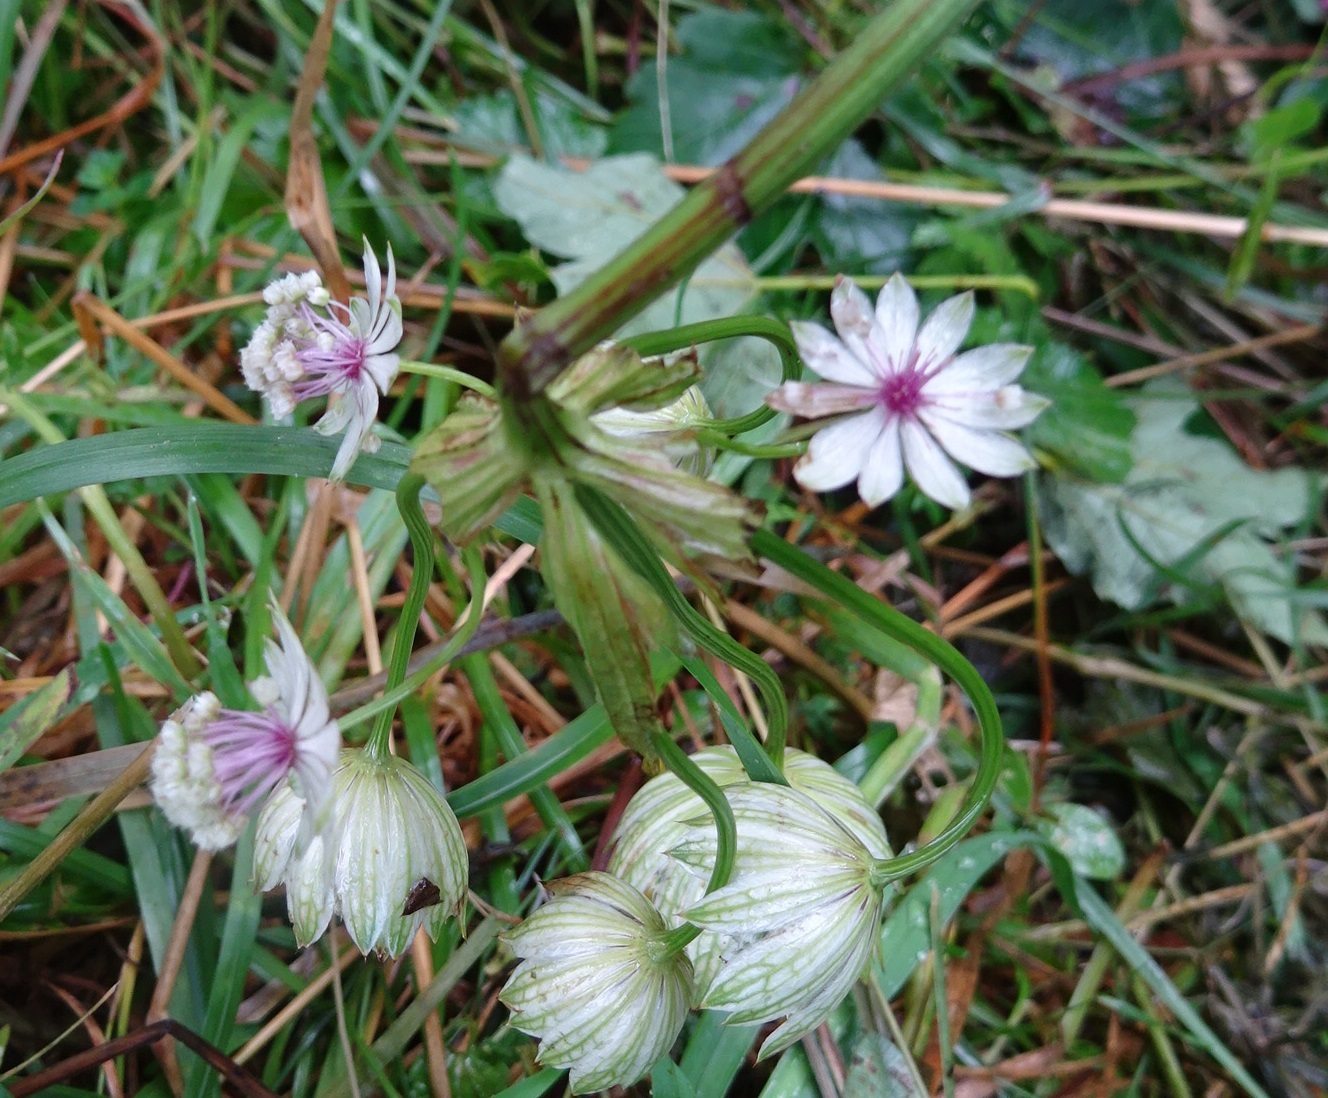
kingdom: Plantae
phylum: Tracheophyta
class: Magnoliopsida
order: Apiales
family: Apiaceae
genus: Astrantia
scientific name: Astrantia major
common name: Greater masterwort
